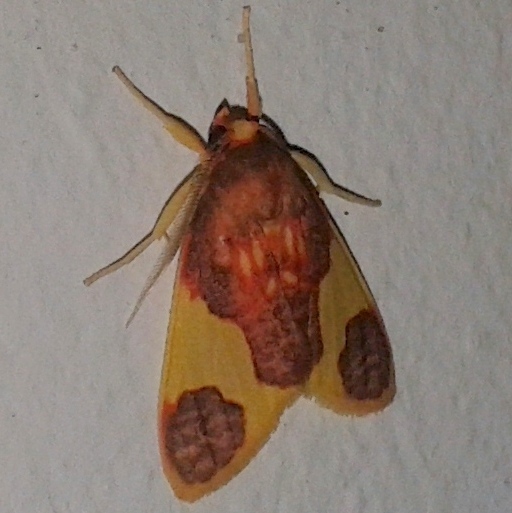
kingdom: Animalia
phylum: Arthropoda
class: Insecta
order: Lepidoptera
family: Erebidae
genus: Trichromia
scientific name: Trichromia
